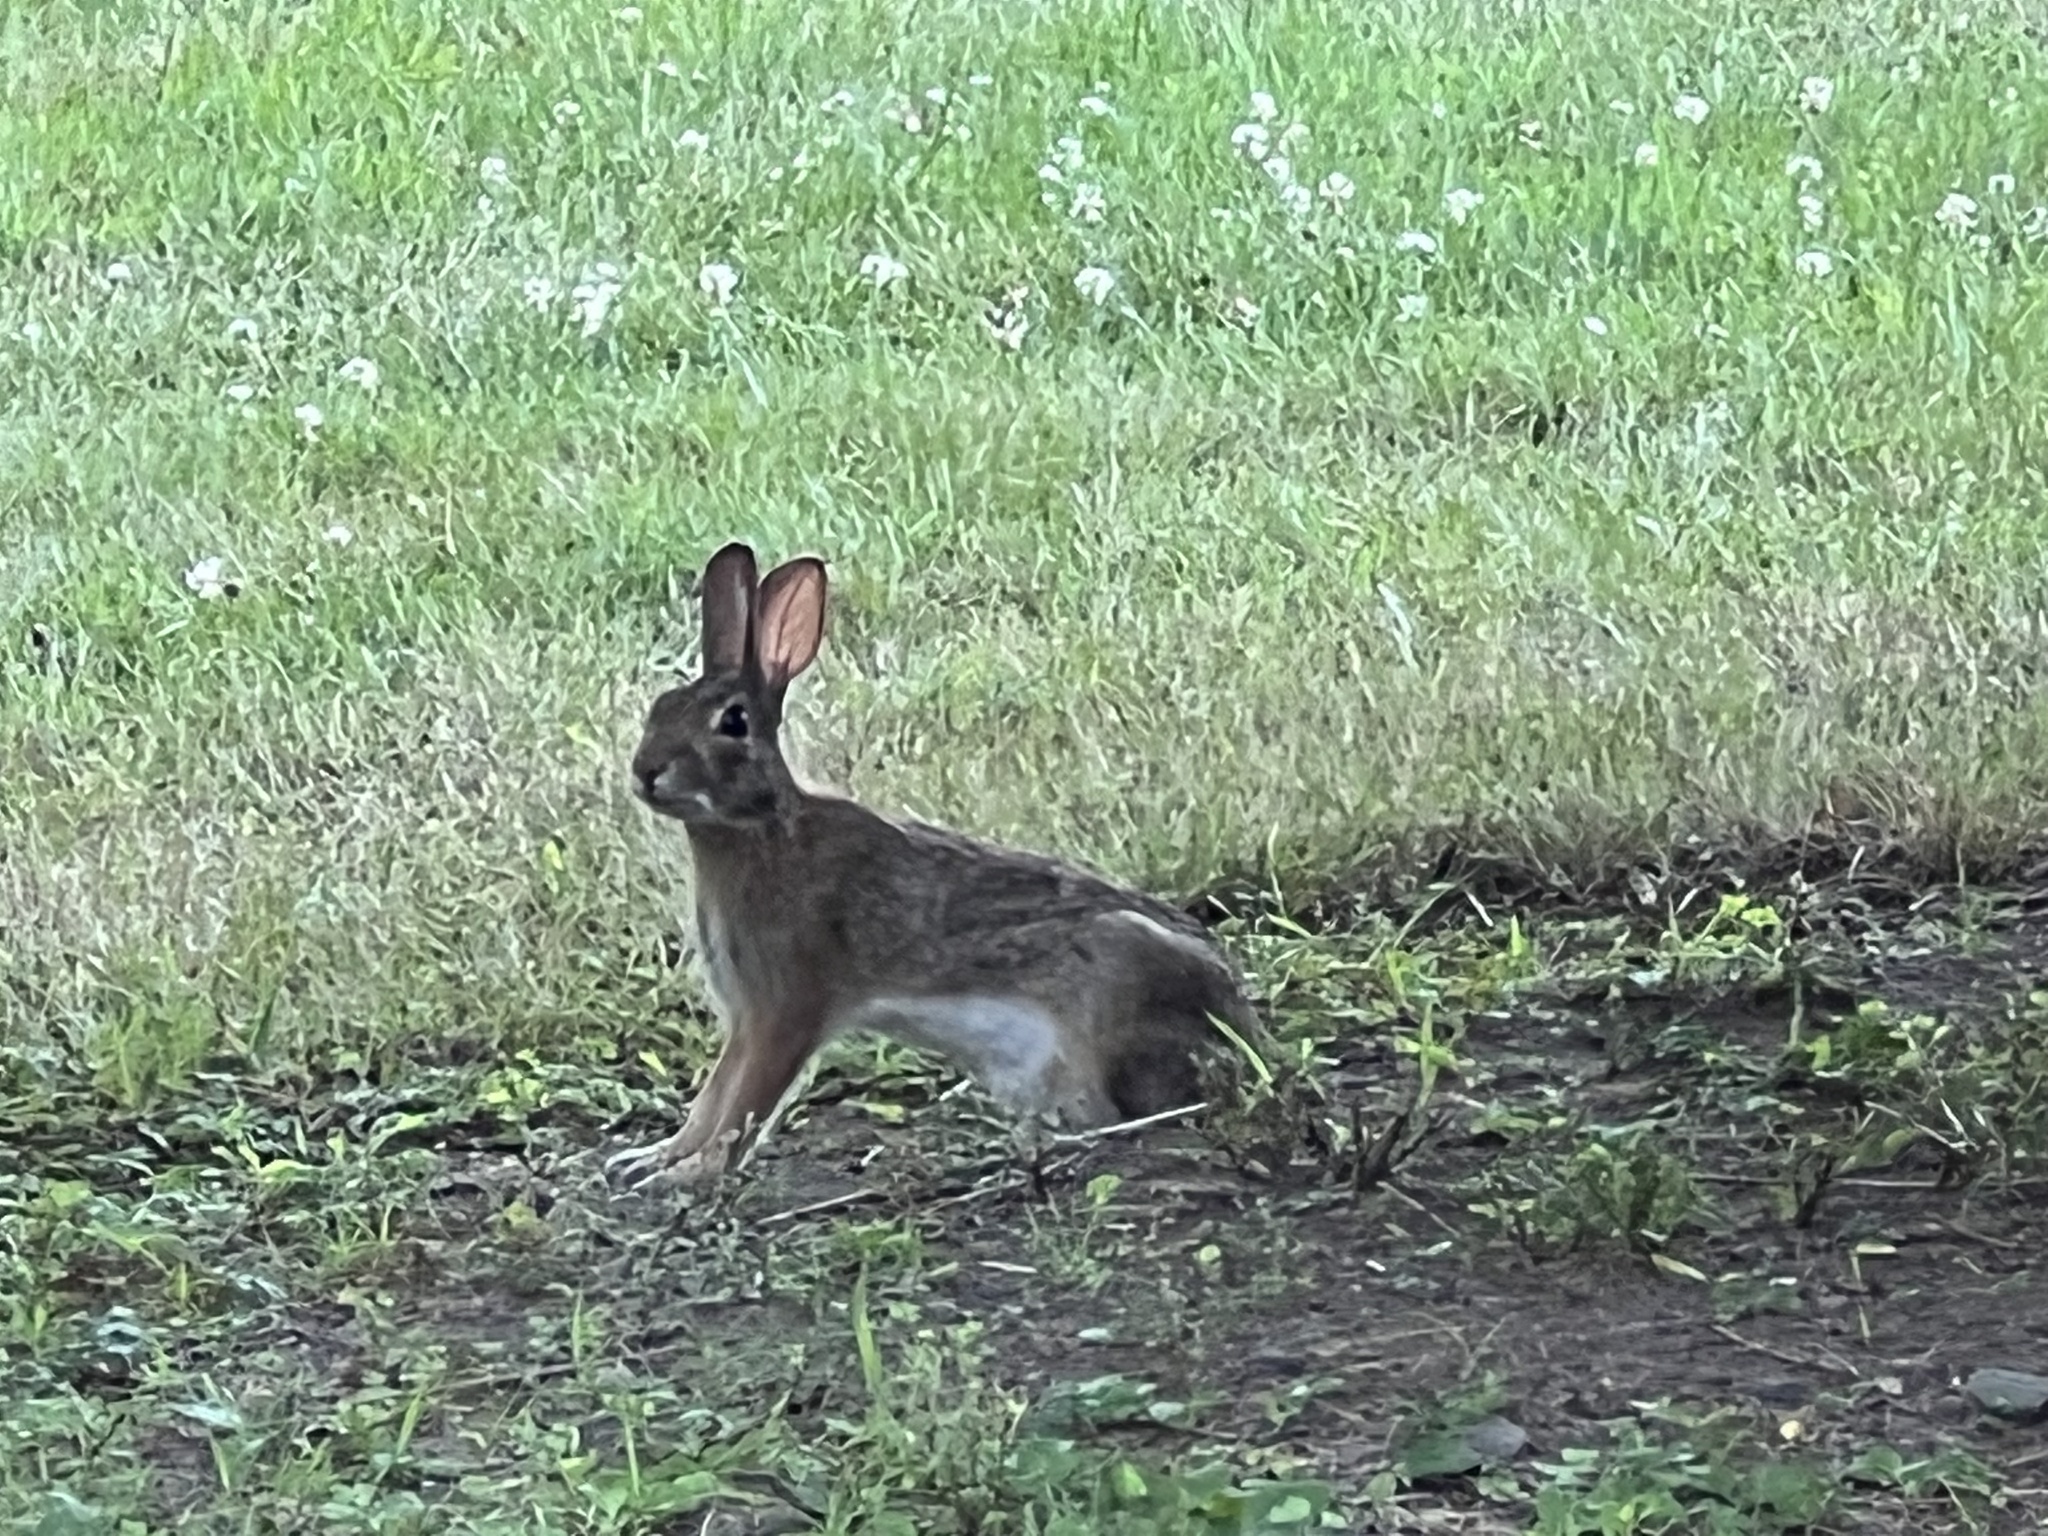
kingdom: Animalia
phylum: Chordata
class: Mammalia
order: Lagomorpha
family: Leporidae
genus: Sylvilagus
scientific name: Sylvilagus floridanus
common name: Eastern cottontail
